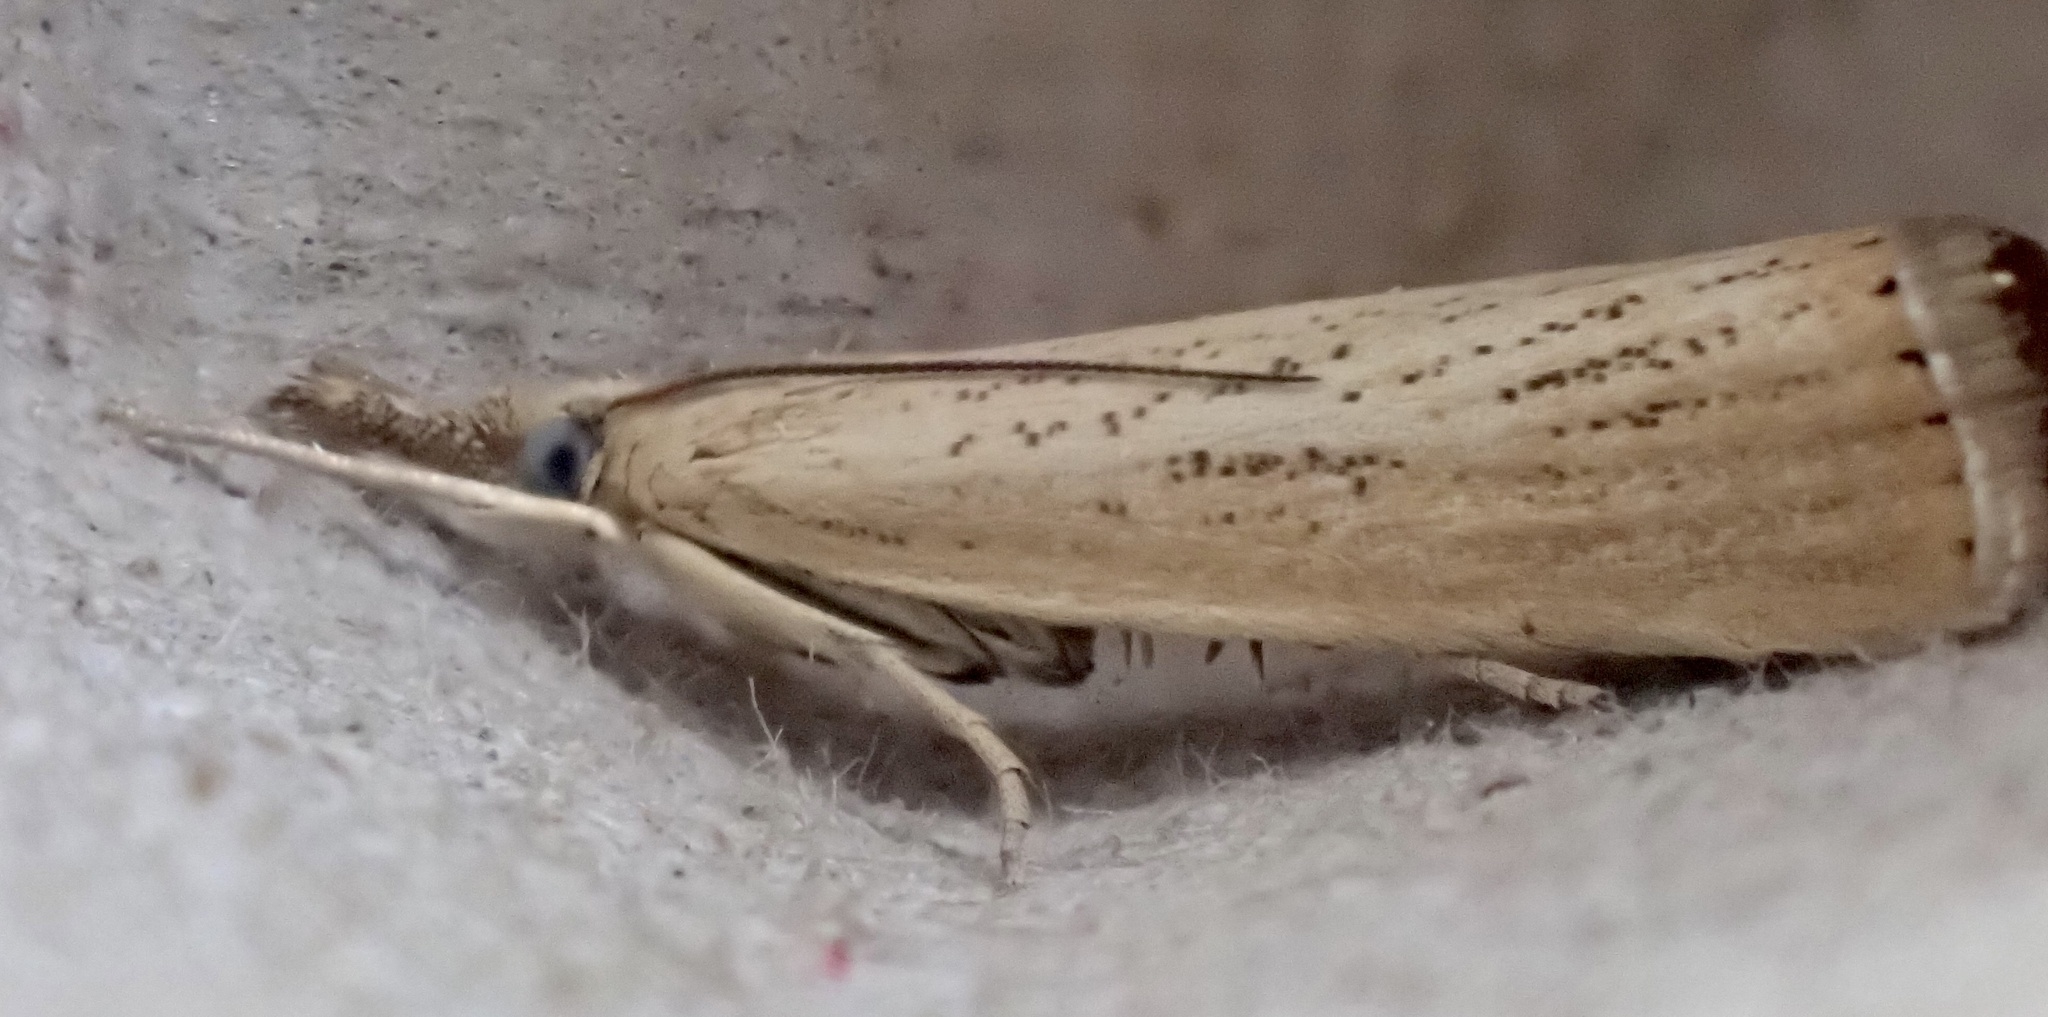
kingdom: Animalia
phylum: Arthropoda
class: Insecta
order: Lepidoptera
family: Crambidae
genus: Agriphila
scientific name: Agriphila straminella
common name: Straw grass-veneer
